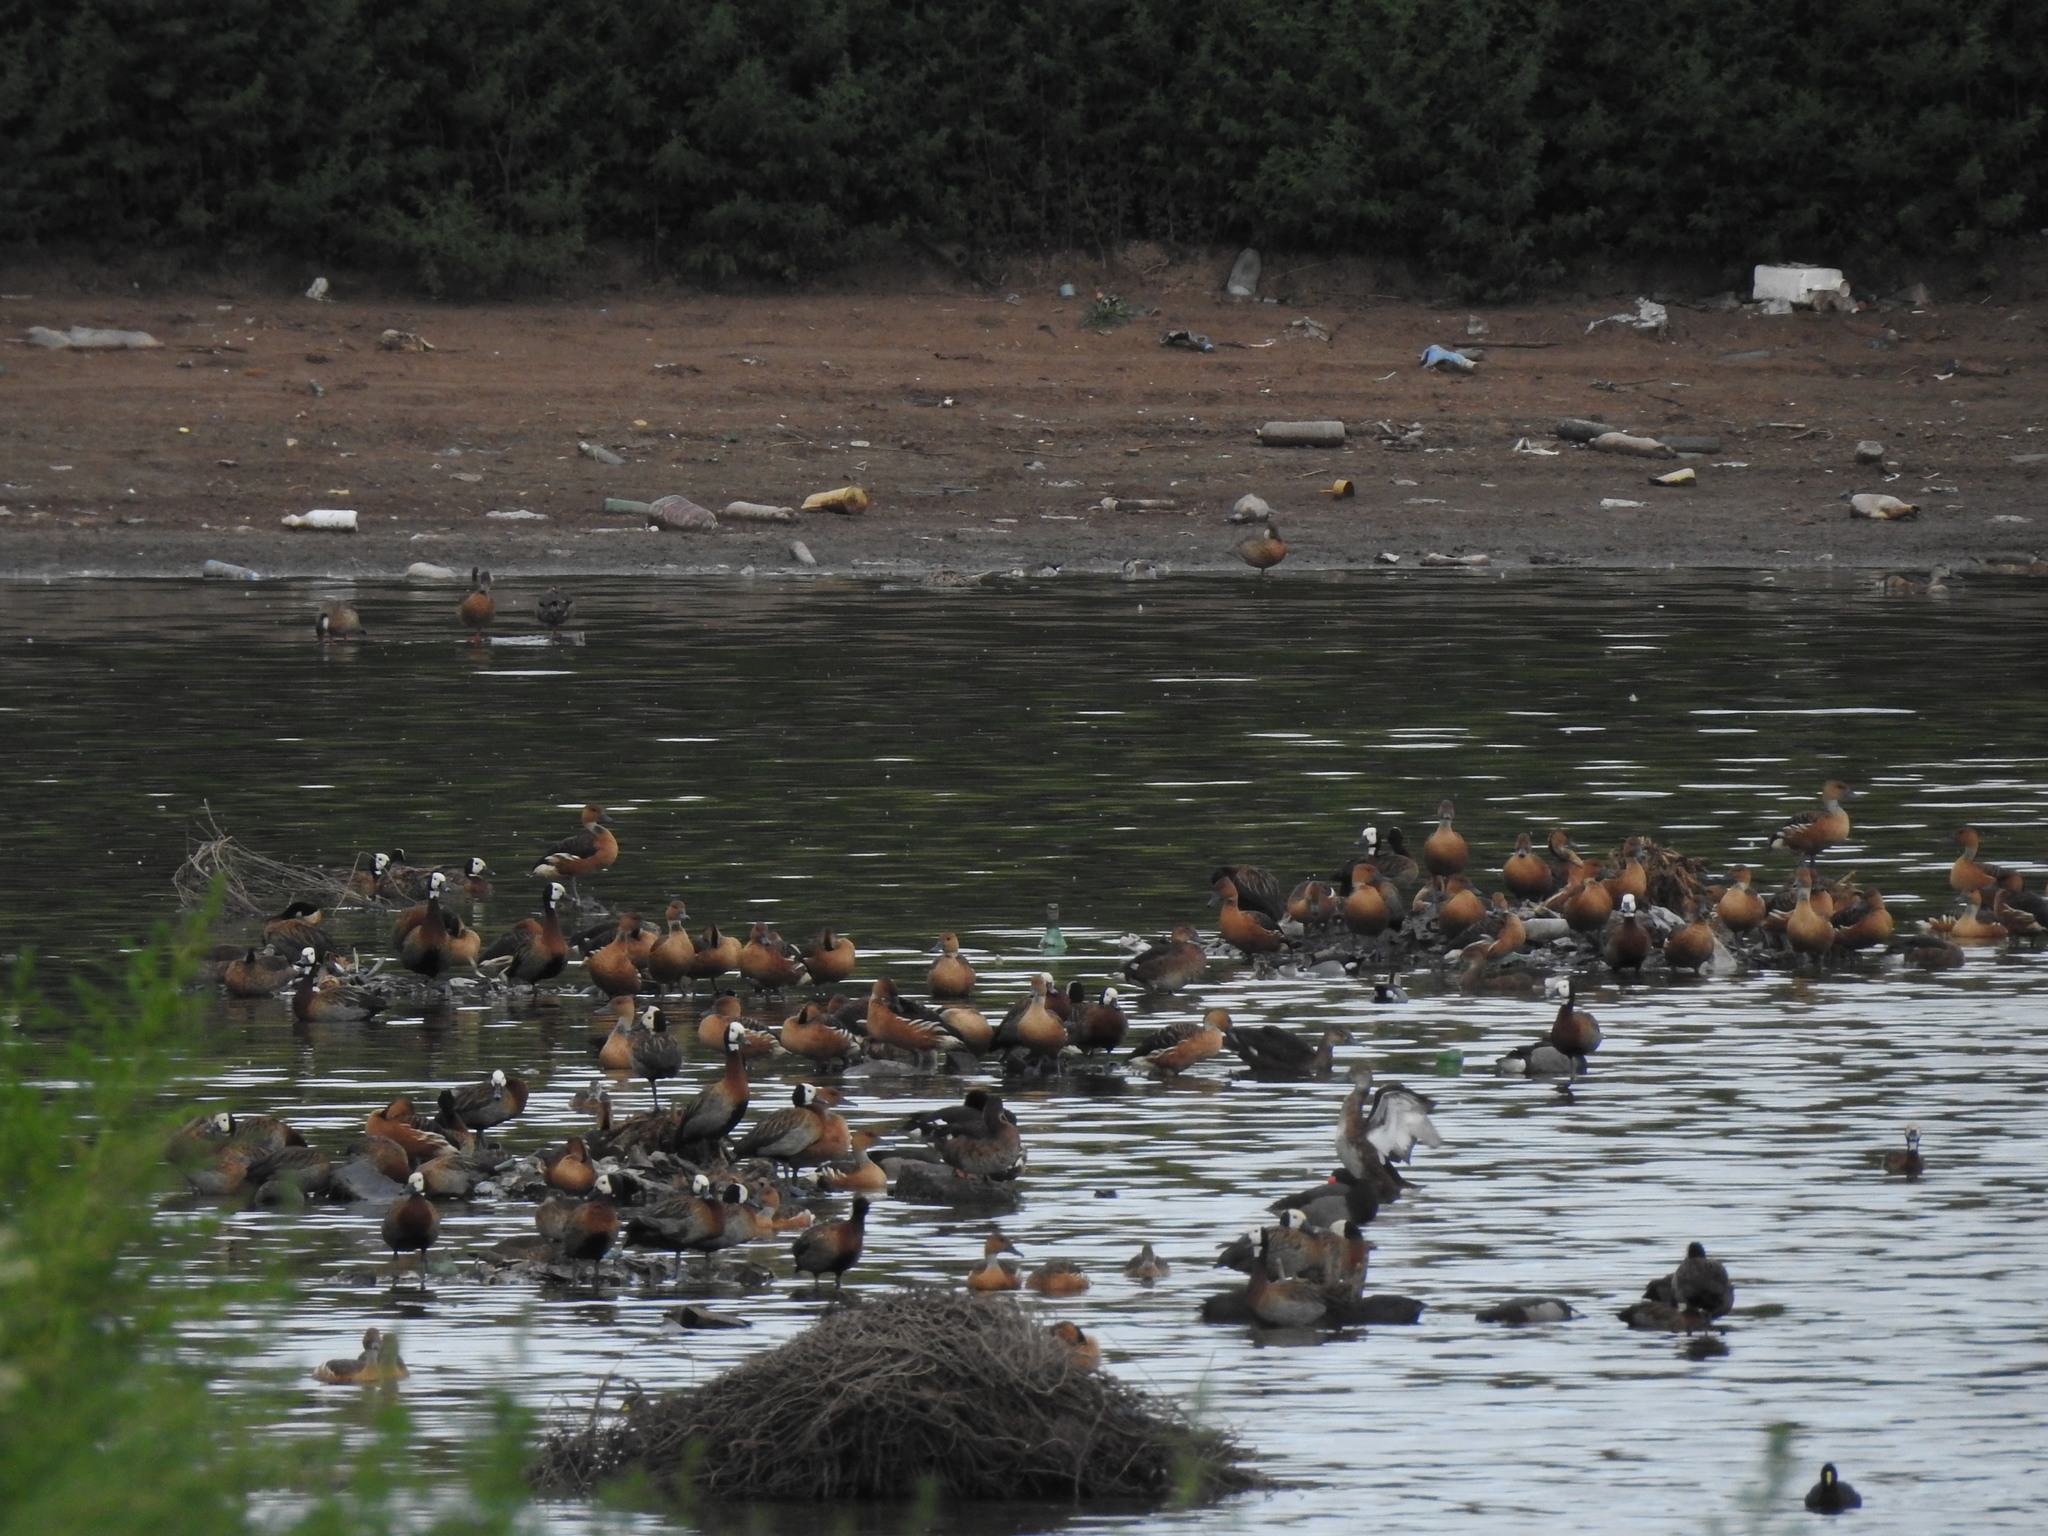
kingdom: Animalia
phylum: Chordata
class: Aves
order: Anseriformes
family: Anatidae
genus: Dendrocygna
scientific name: Dendrocygna bicolor
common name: Fulvous whistling duck
